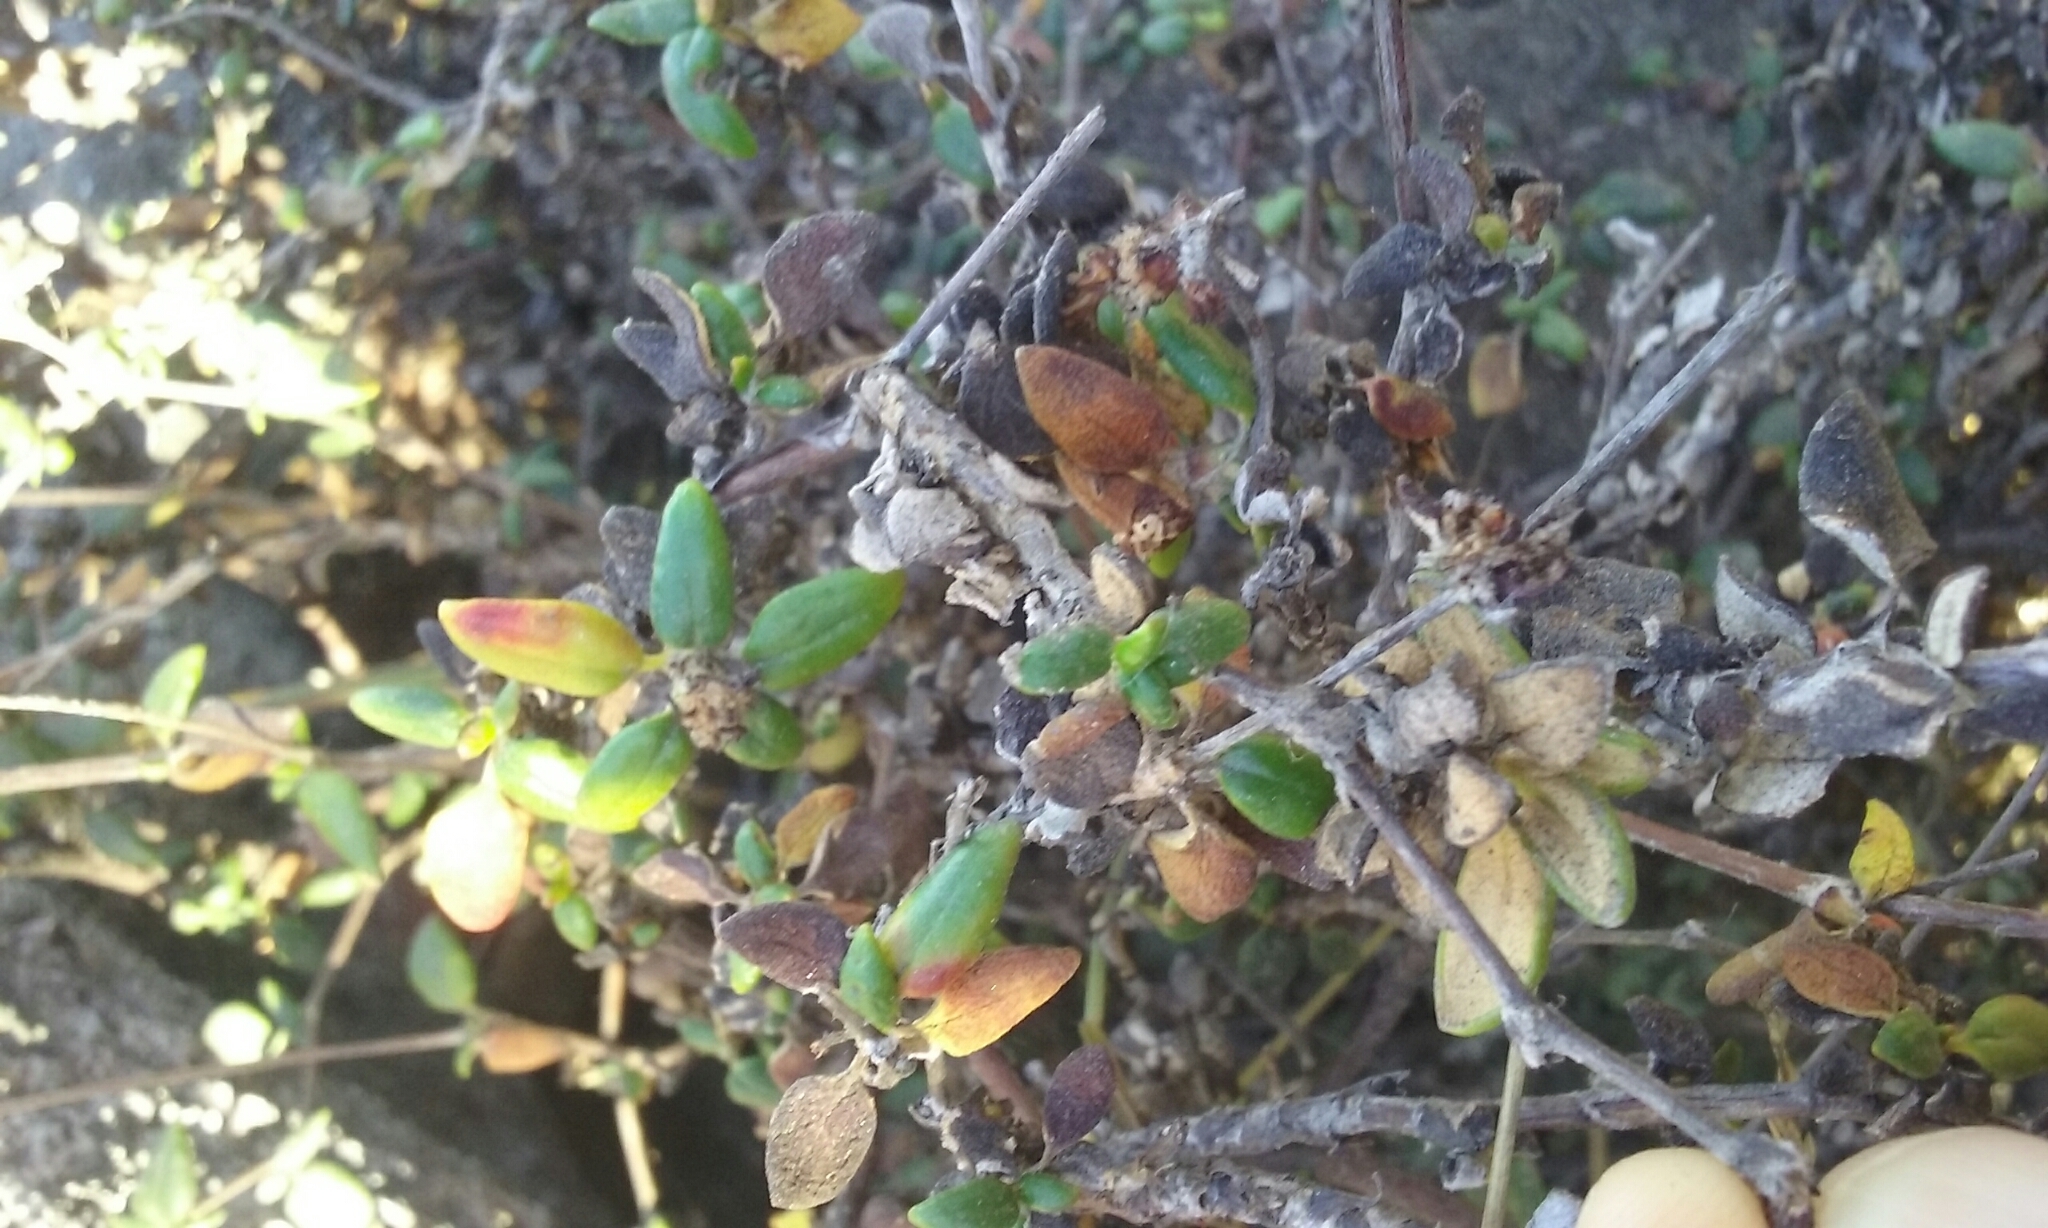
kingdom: Plantae
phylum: Tracheophyta
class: Magnoliopsida
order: Caryophyllales
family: Polygonaceae
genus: Eriogonum
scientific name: Eriogonum parvifolium
